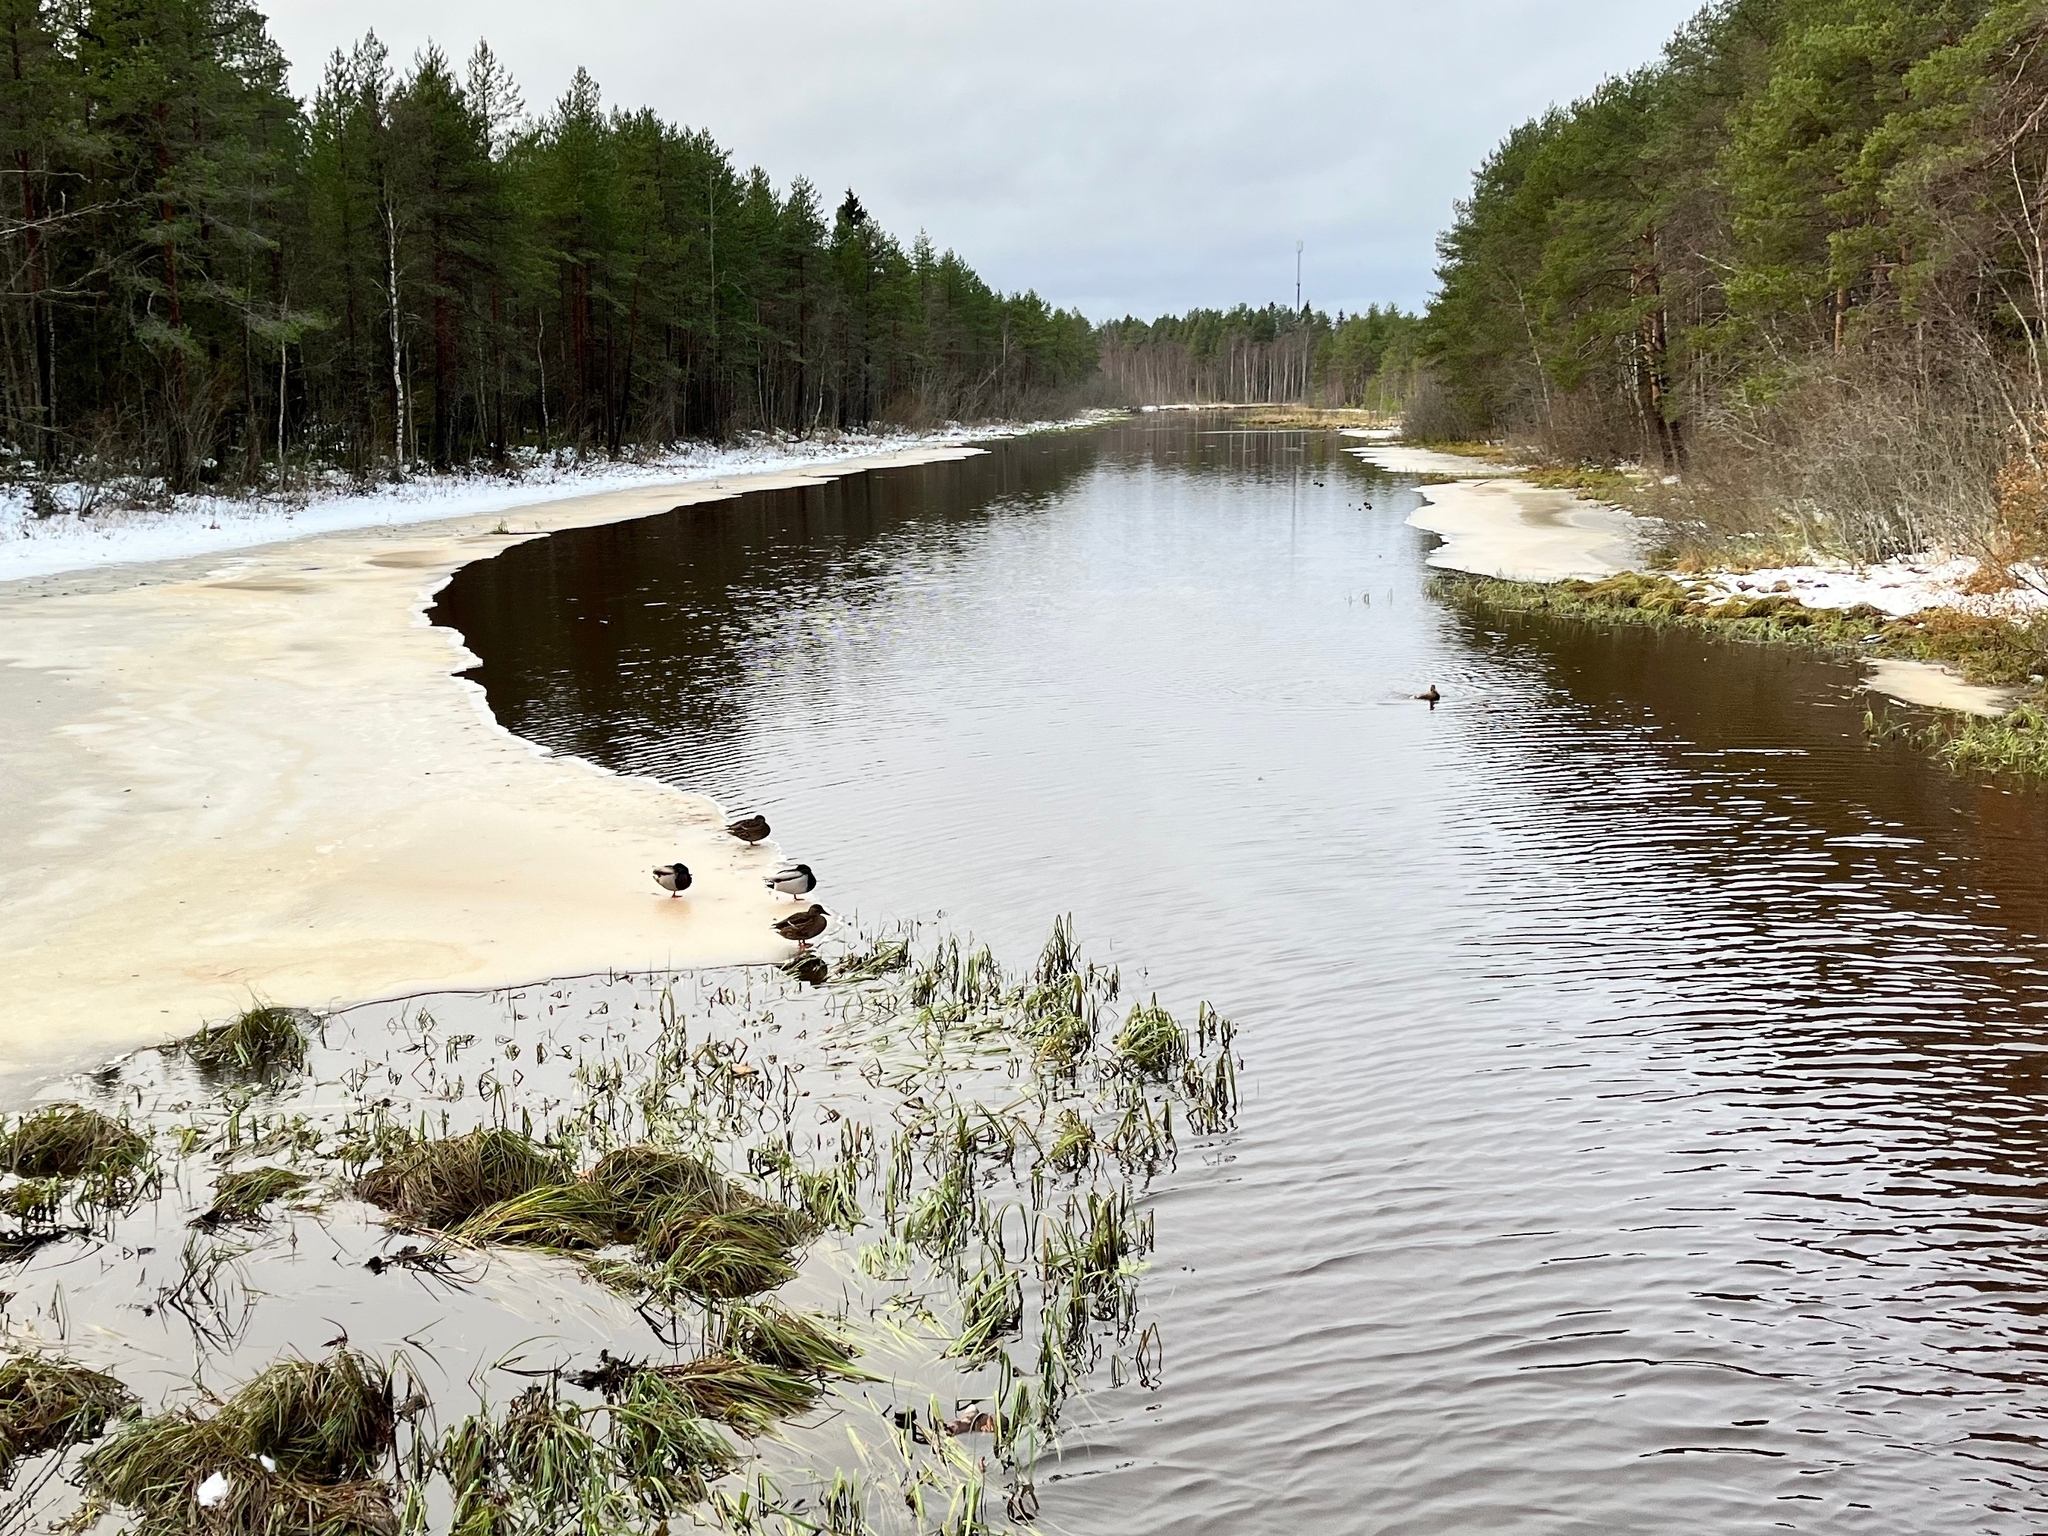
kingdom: Animalia
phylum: Chordata
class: Aves
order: Anseriformes
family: Anatidae
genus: Anas
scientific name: Anas platyrhynchos
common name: Mallard
